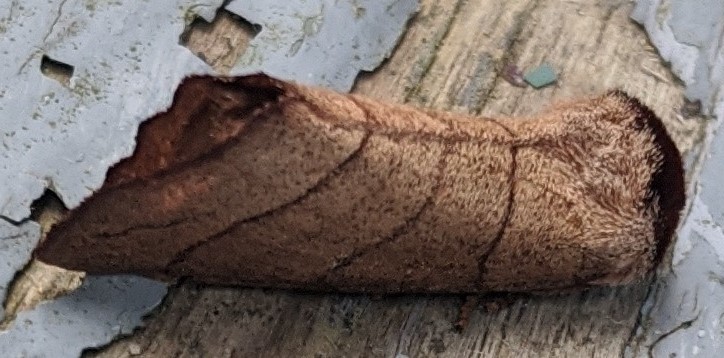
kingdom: Animalia
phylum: Arthropoda
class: Insecta
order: Lepidoptera
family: Notodontidae
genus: Datana
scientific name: Datana ministra
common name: Yellow-necked caterpillar moth
